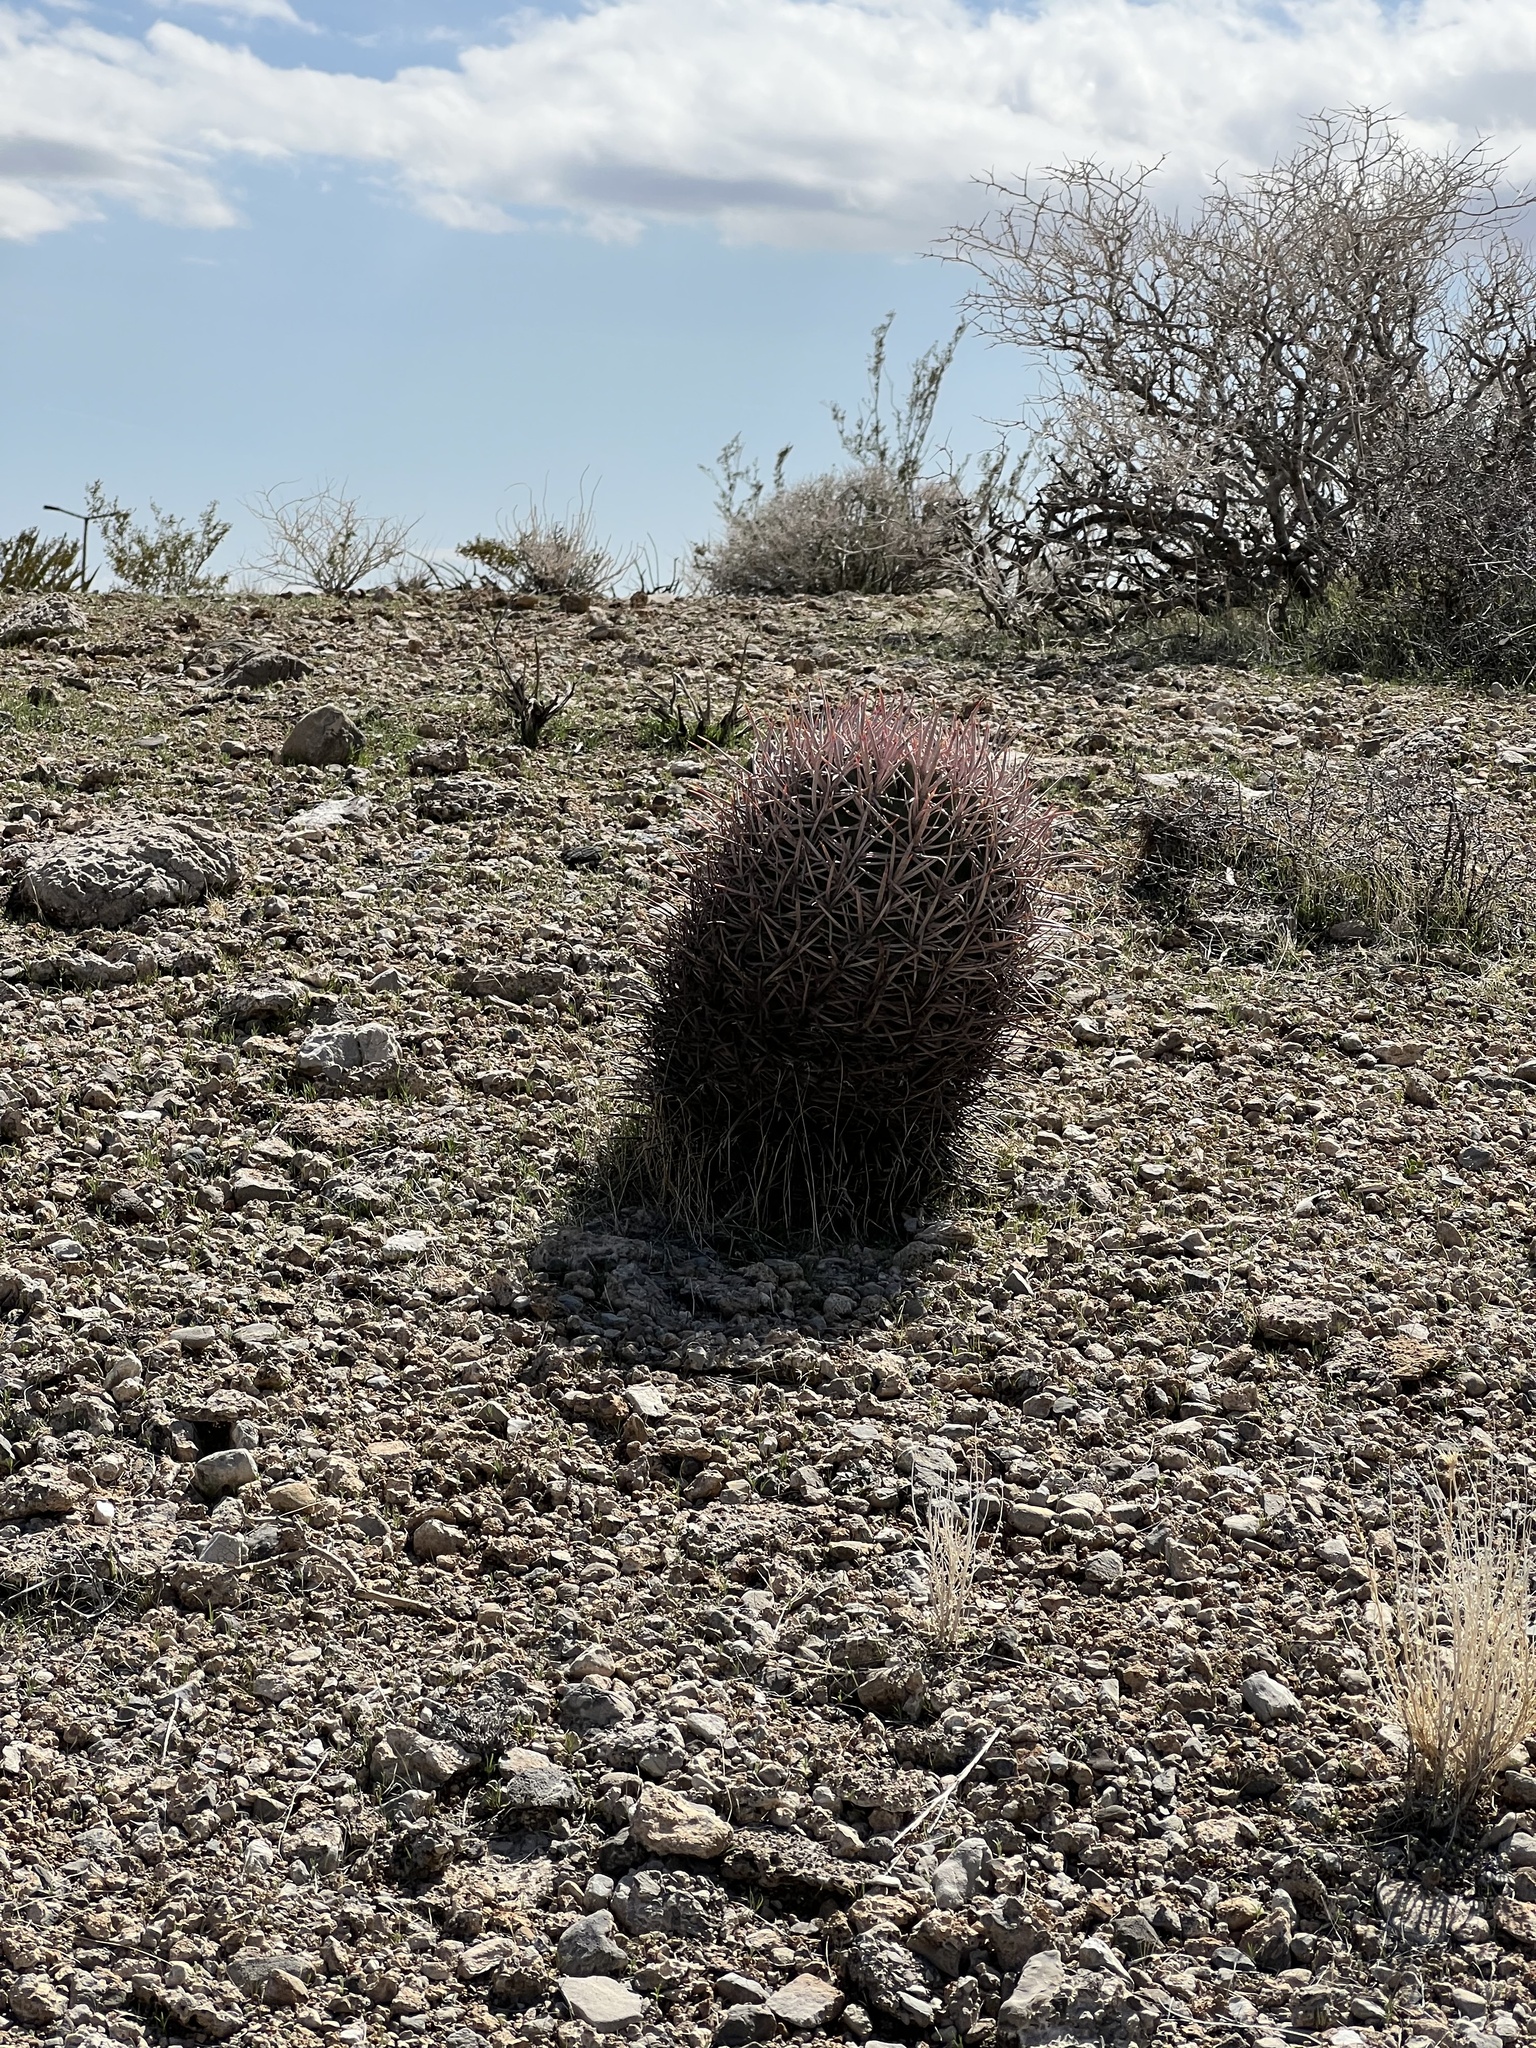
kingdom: Plantae
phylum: Tracheophyta
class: Magnoliopsida
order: Caryophyllales
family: Cactaceae
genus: Echinocactus
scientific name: Echinocactus polycephalus
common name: Cottontop cactus
